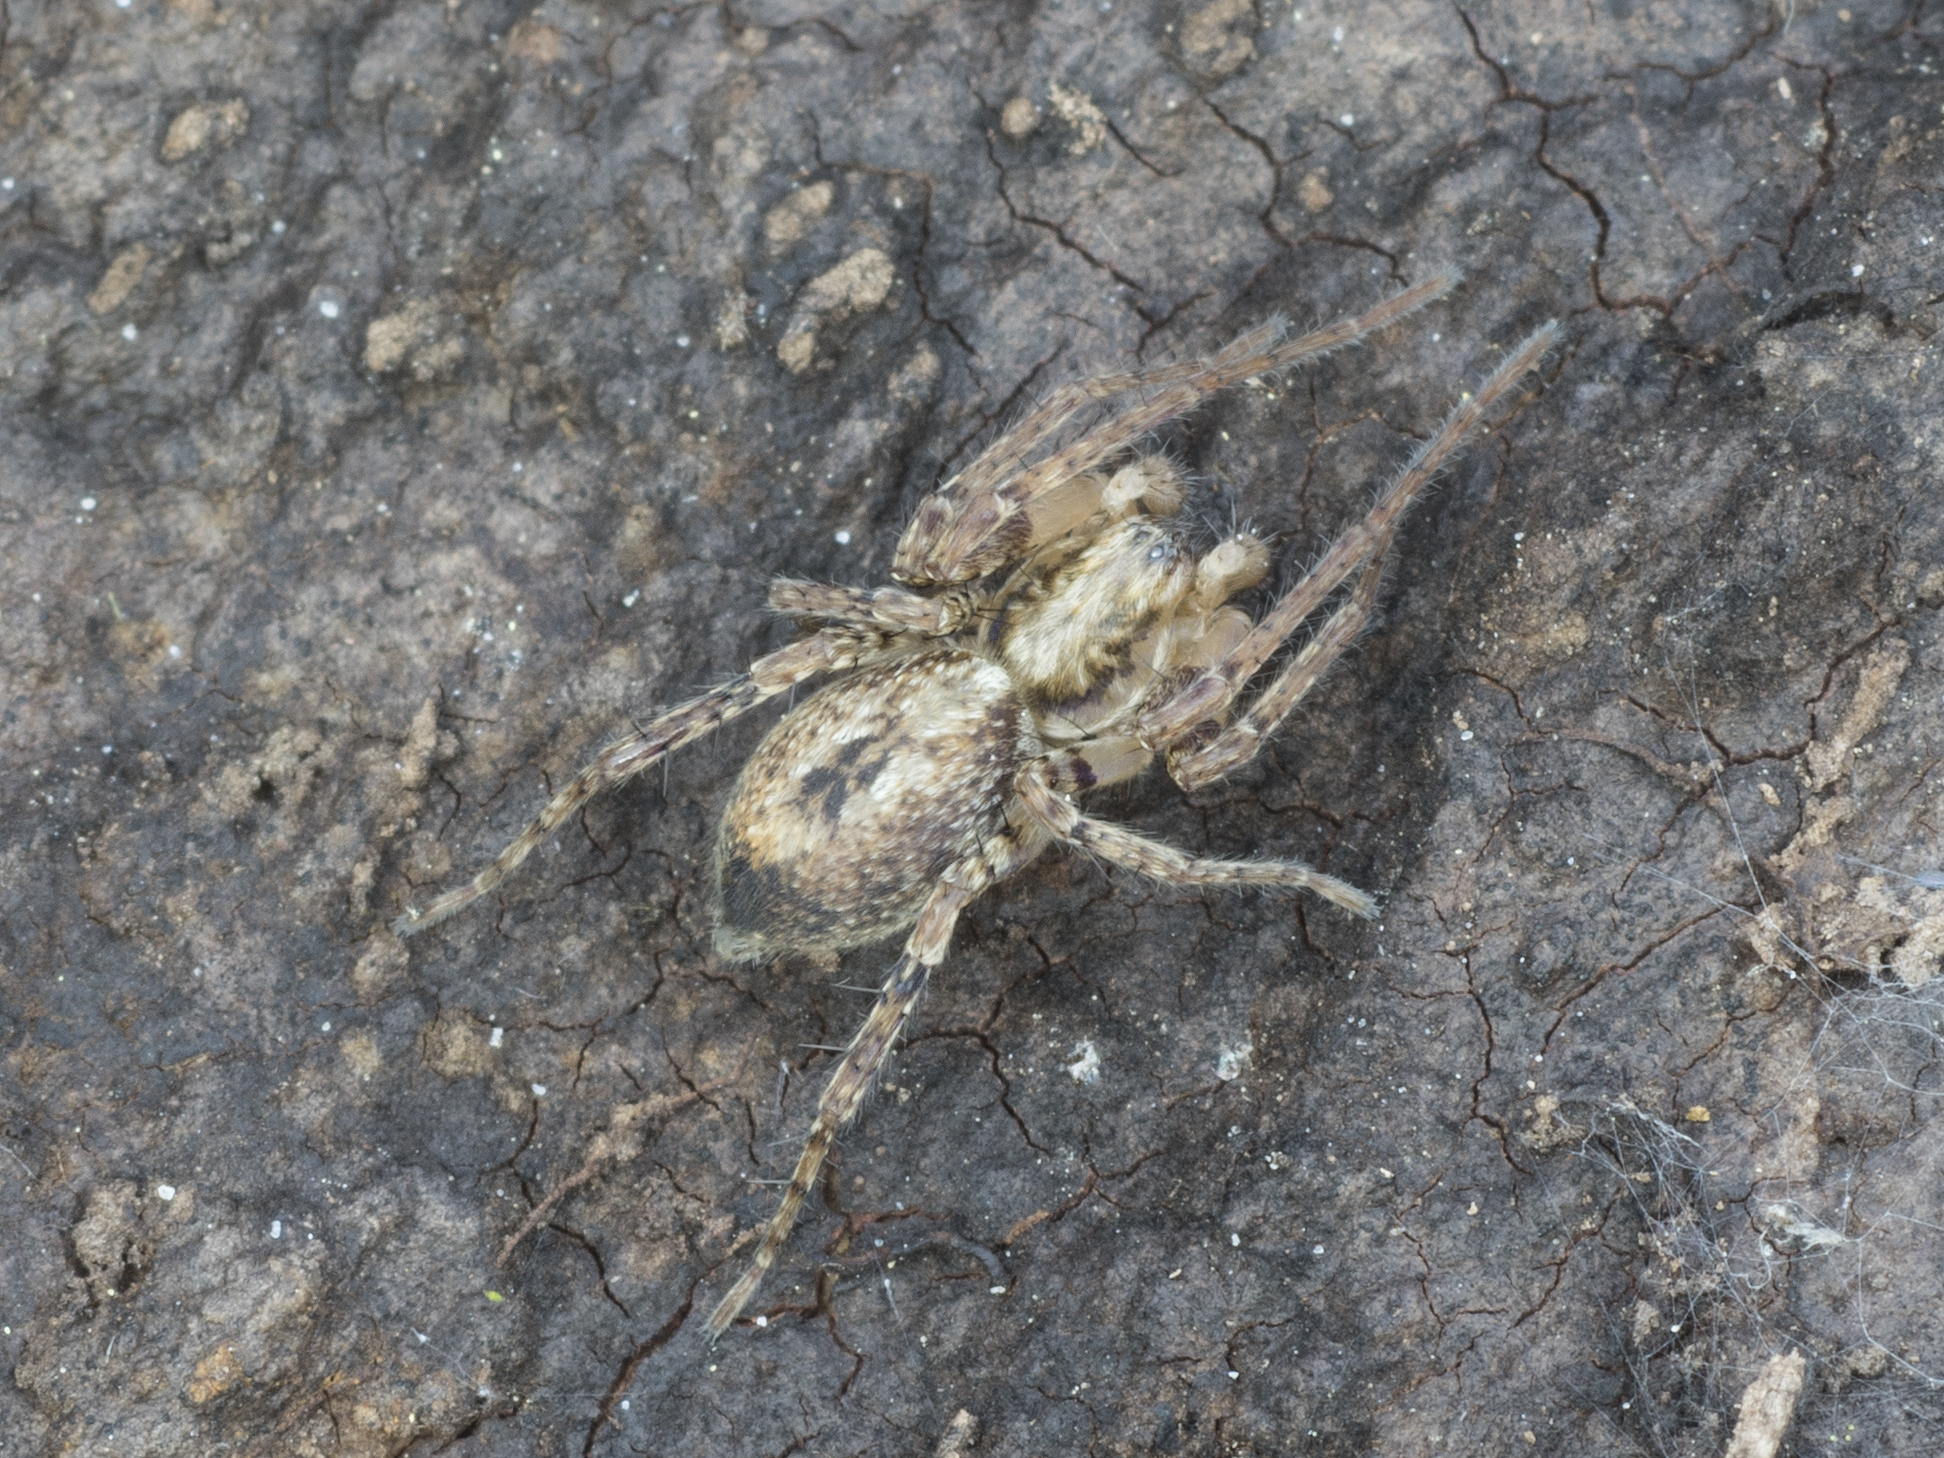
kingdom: Animalia
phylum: Arthropoda
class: Arachnida
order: Araneae
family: Anyphaenidae
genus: Anyphaena
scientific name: Anyphaena accentuata
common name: Buzzing spider
